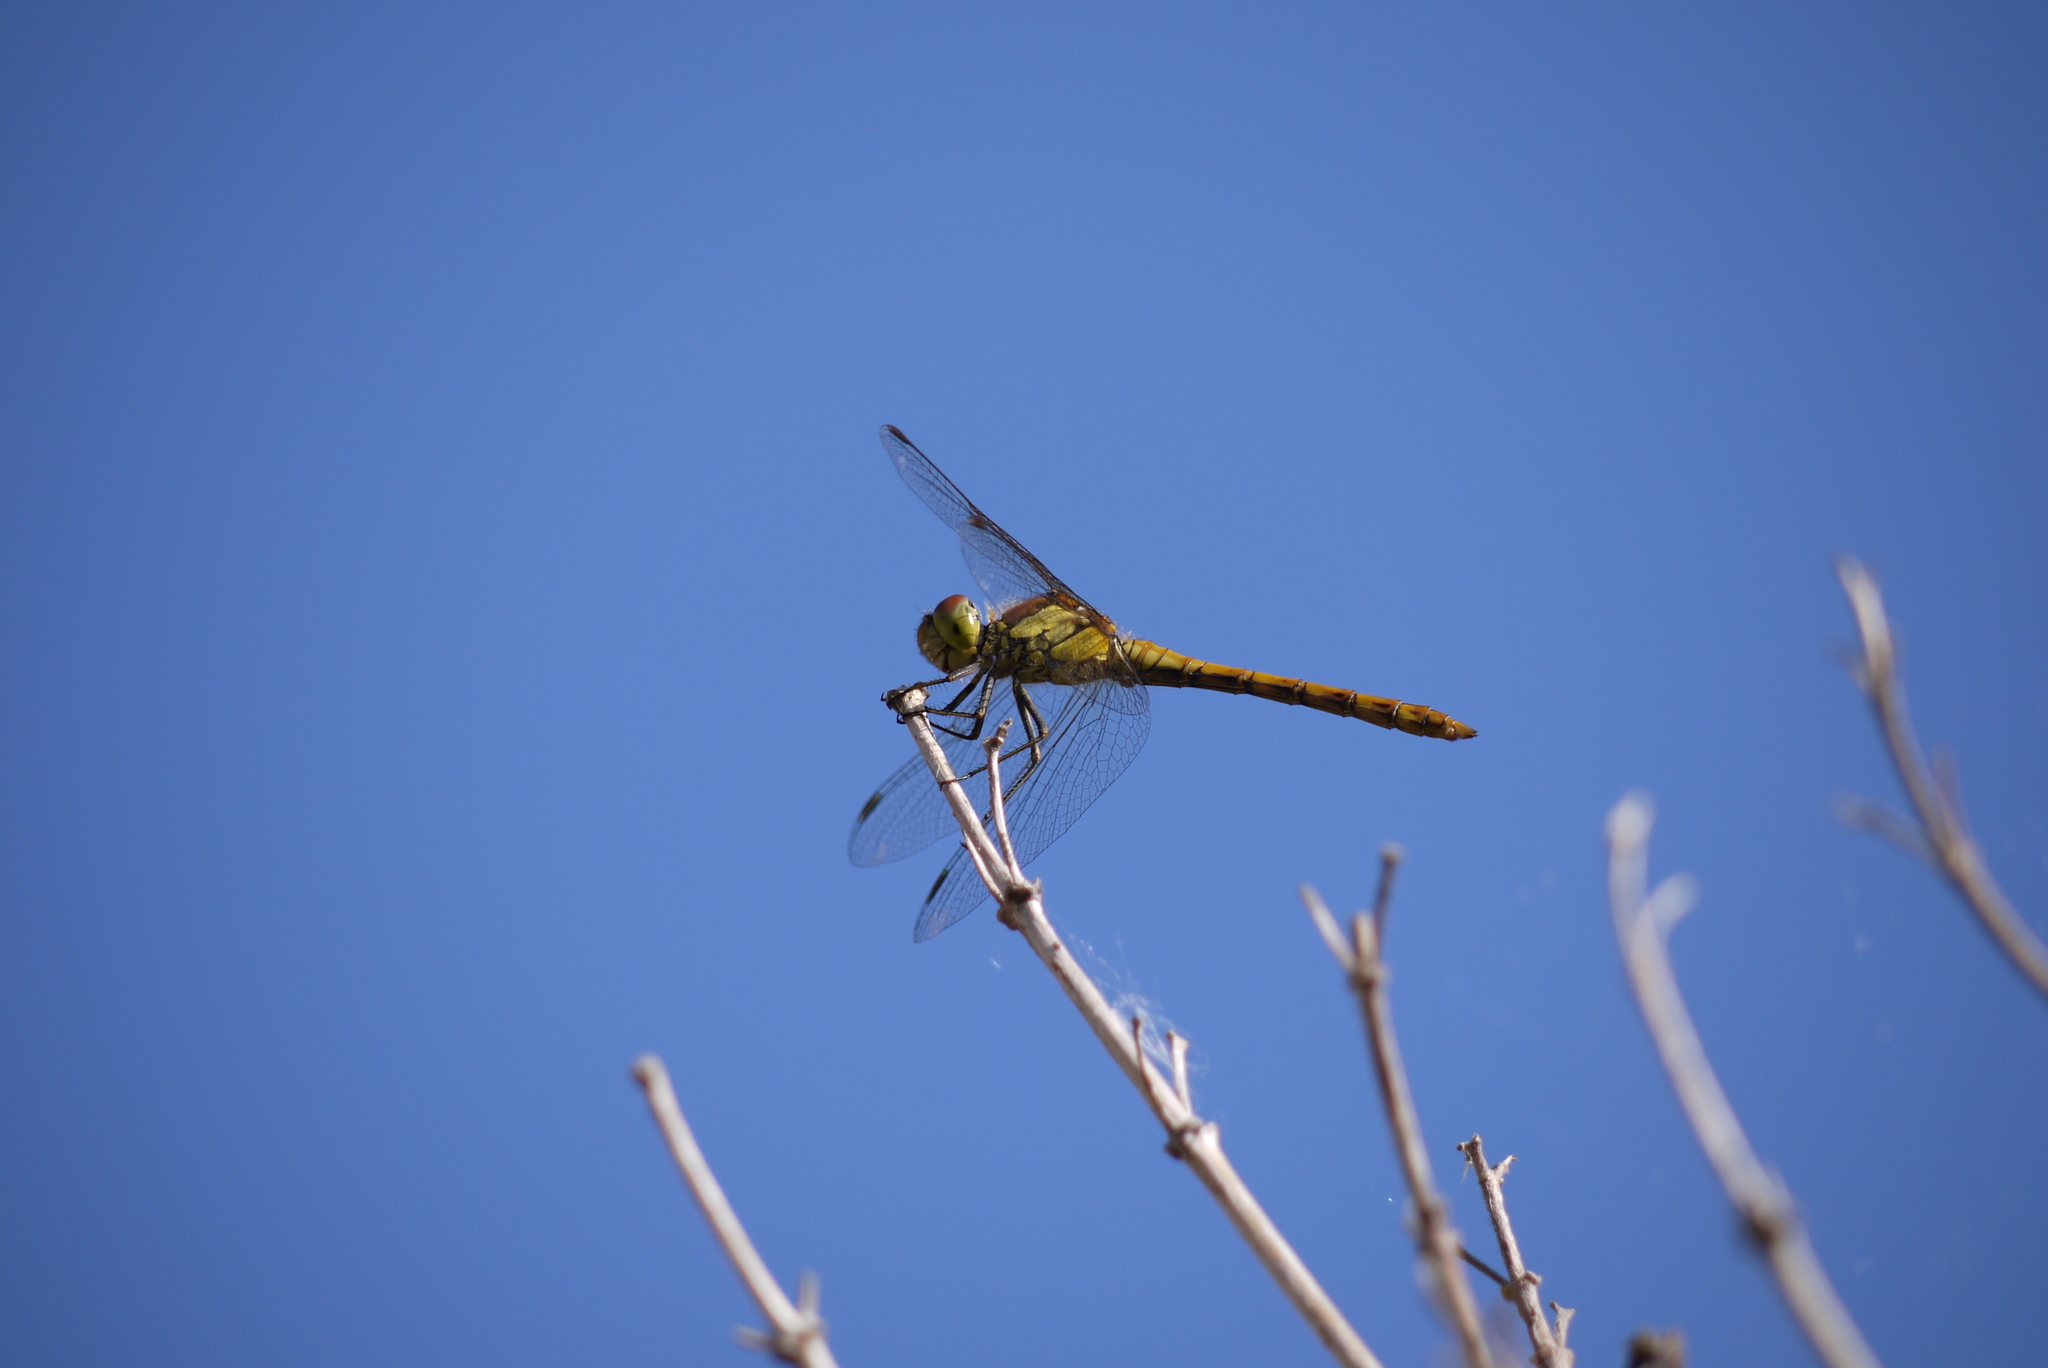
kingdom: Animalia
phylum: Arthropoda
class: Insecta
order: Odonata
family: Libellulidae
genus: Sympetrum
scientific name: Sympetrum striolatum
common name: Common darter
